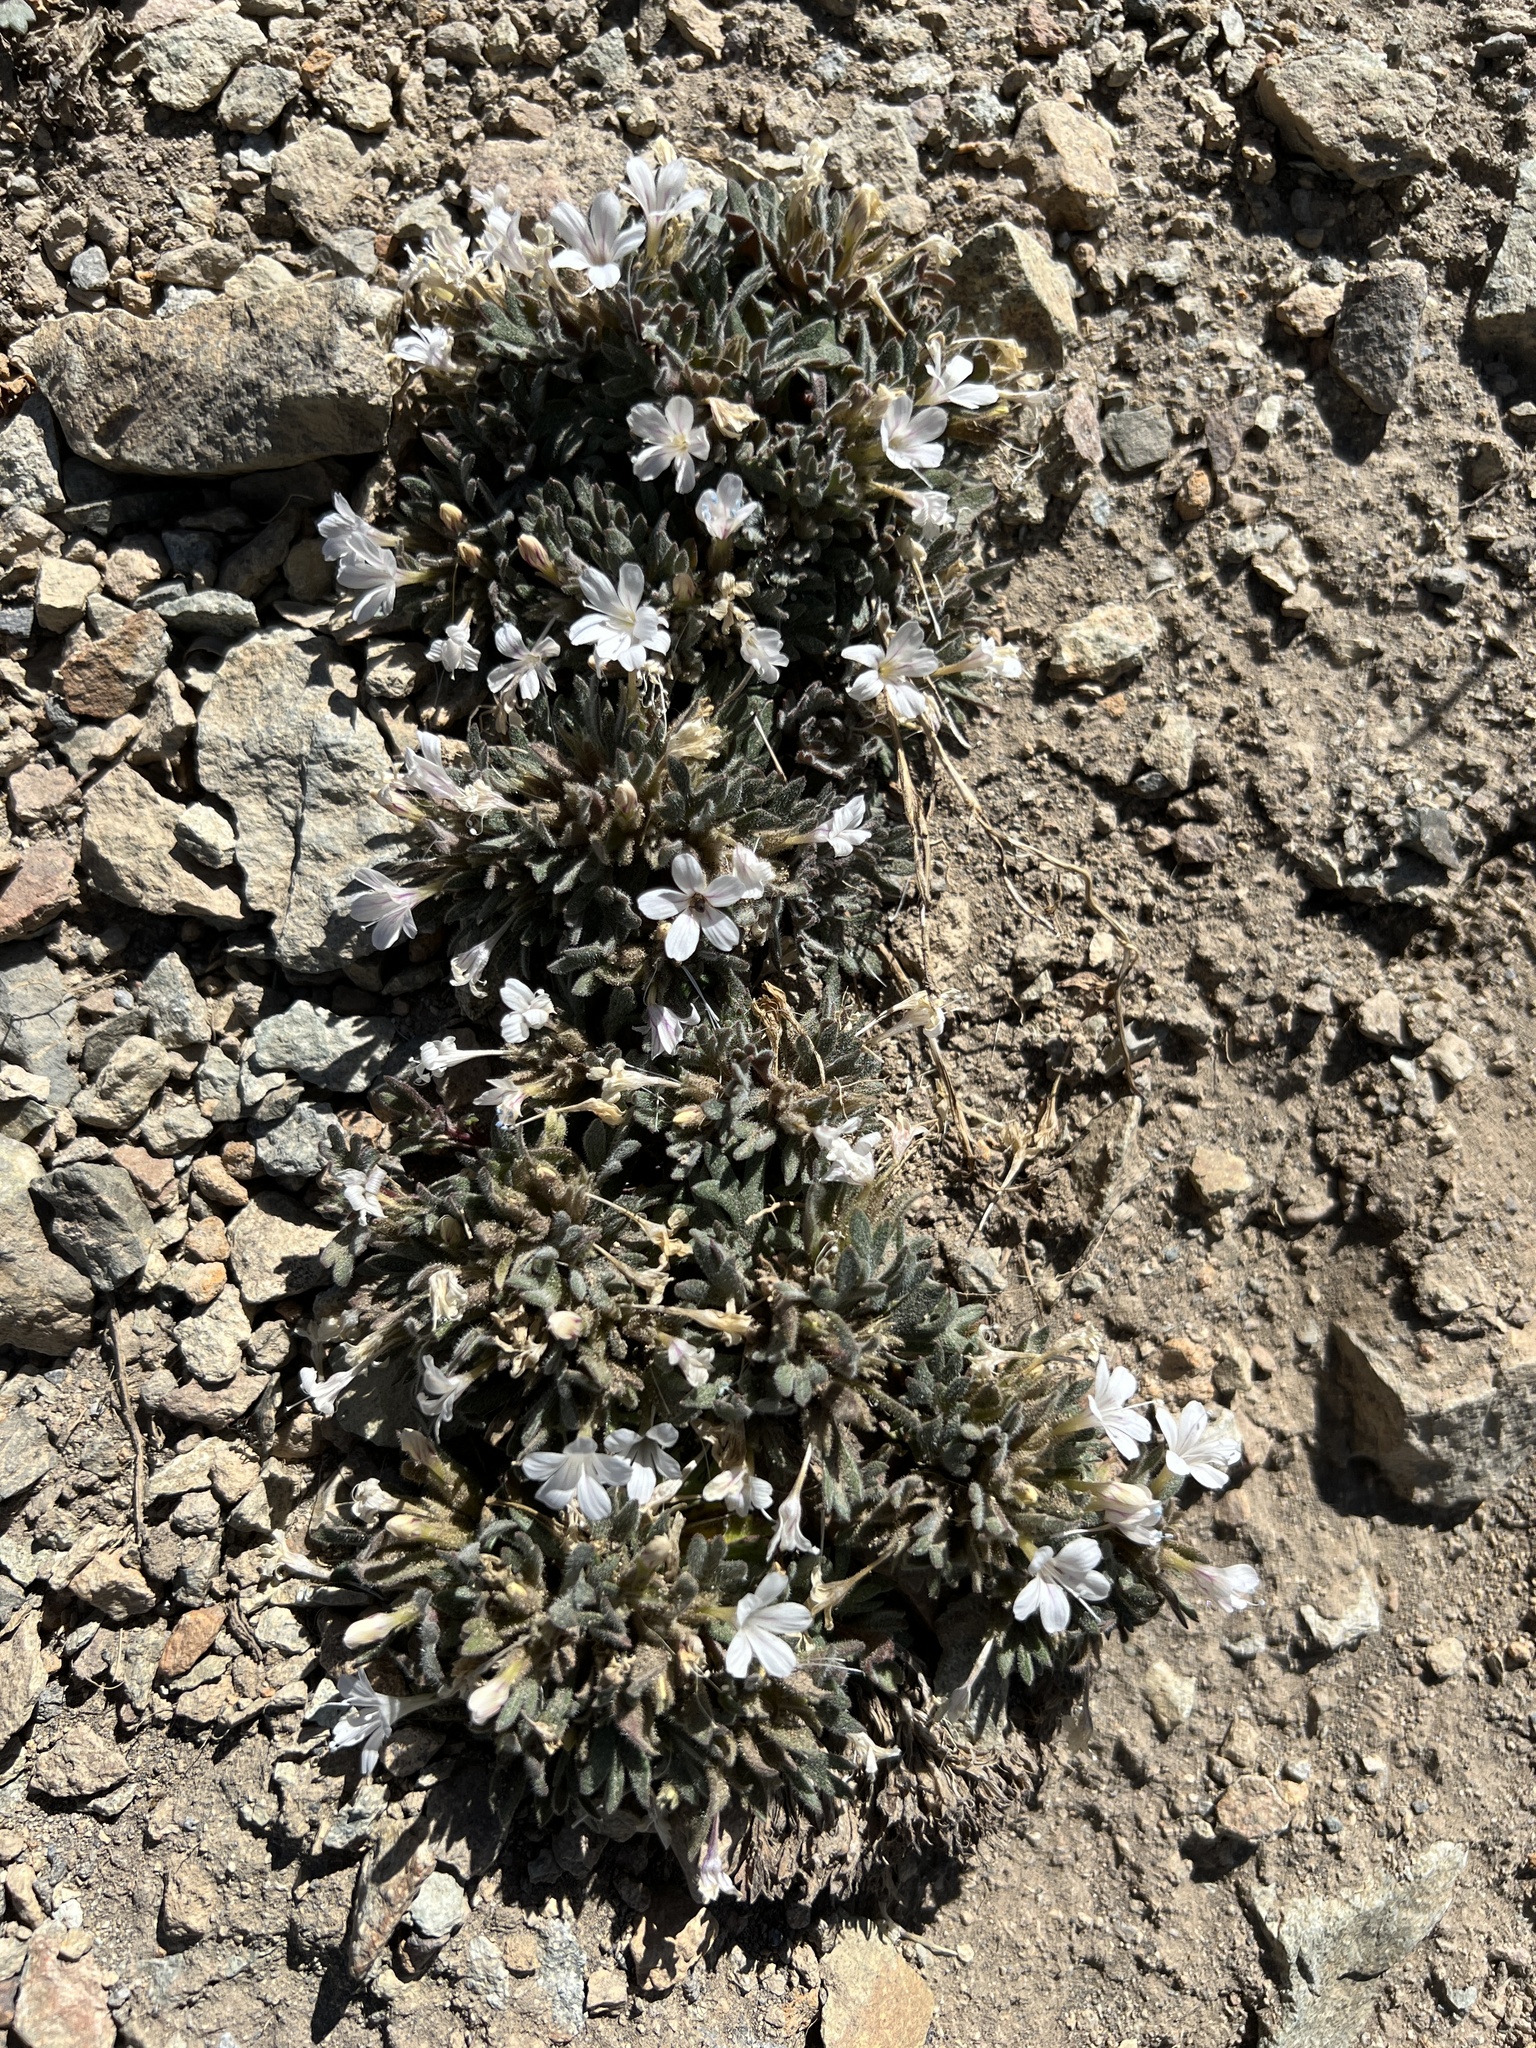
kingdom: Plantae
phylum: Tracheophyta
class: Magnoliopsida
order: Ericales
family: Polemoniaceae
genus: Collomia
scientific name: Collomia larsenii
